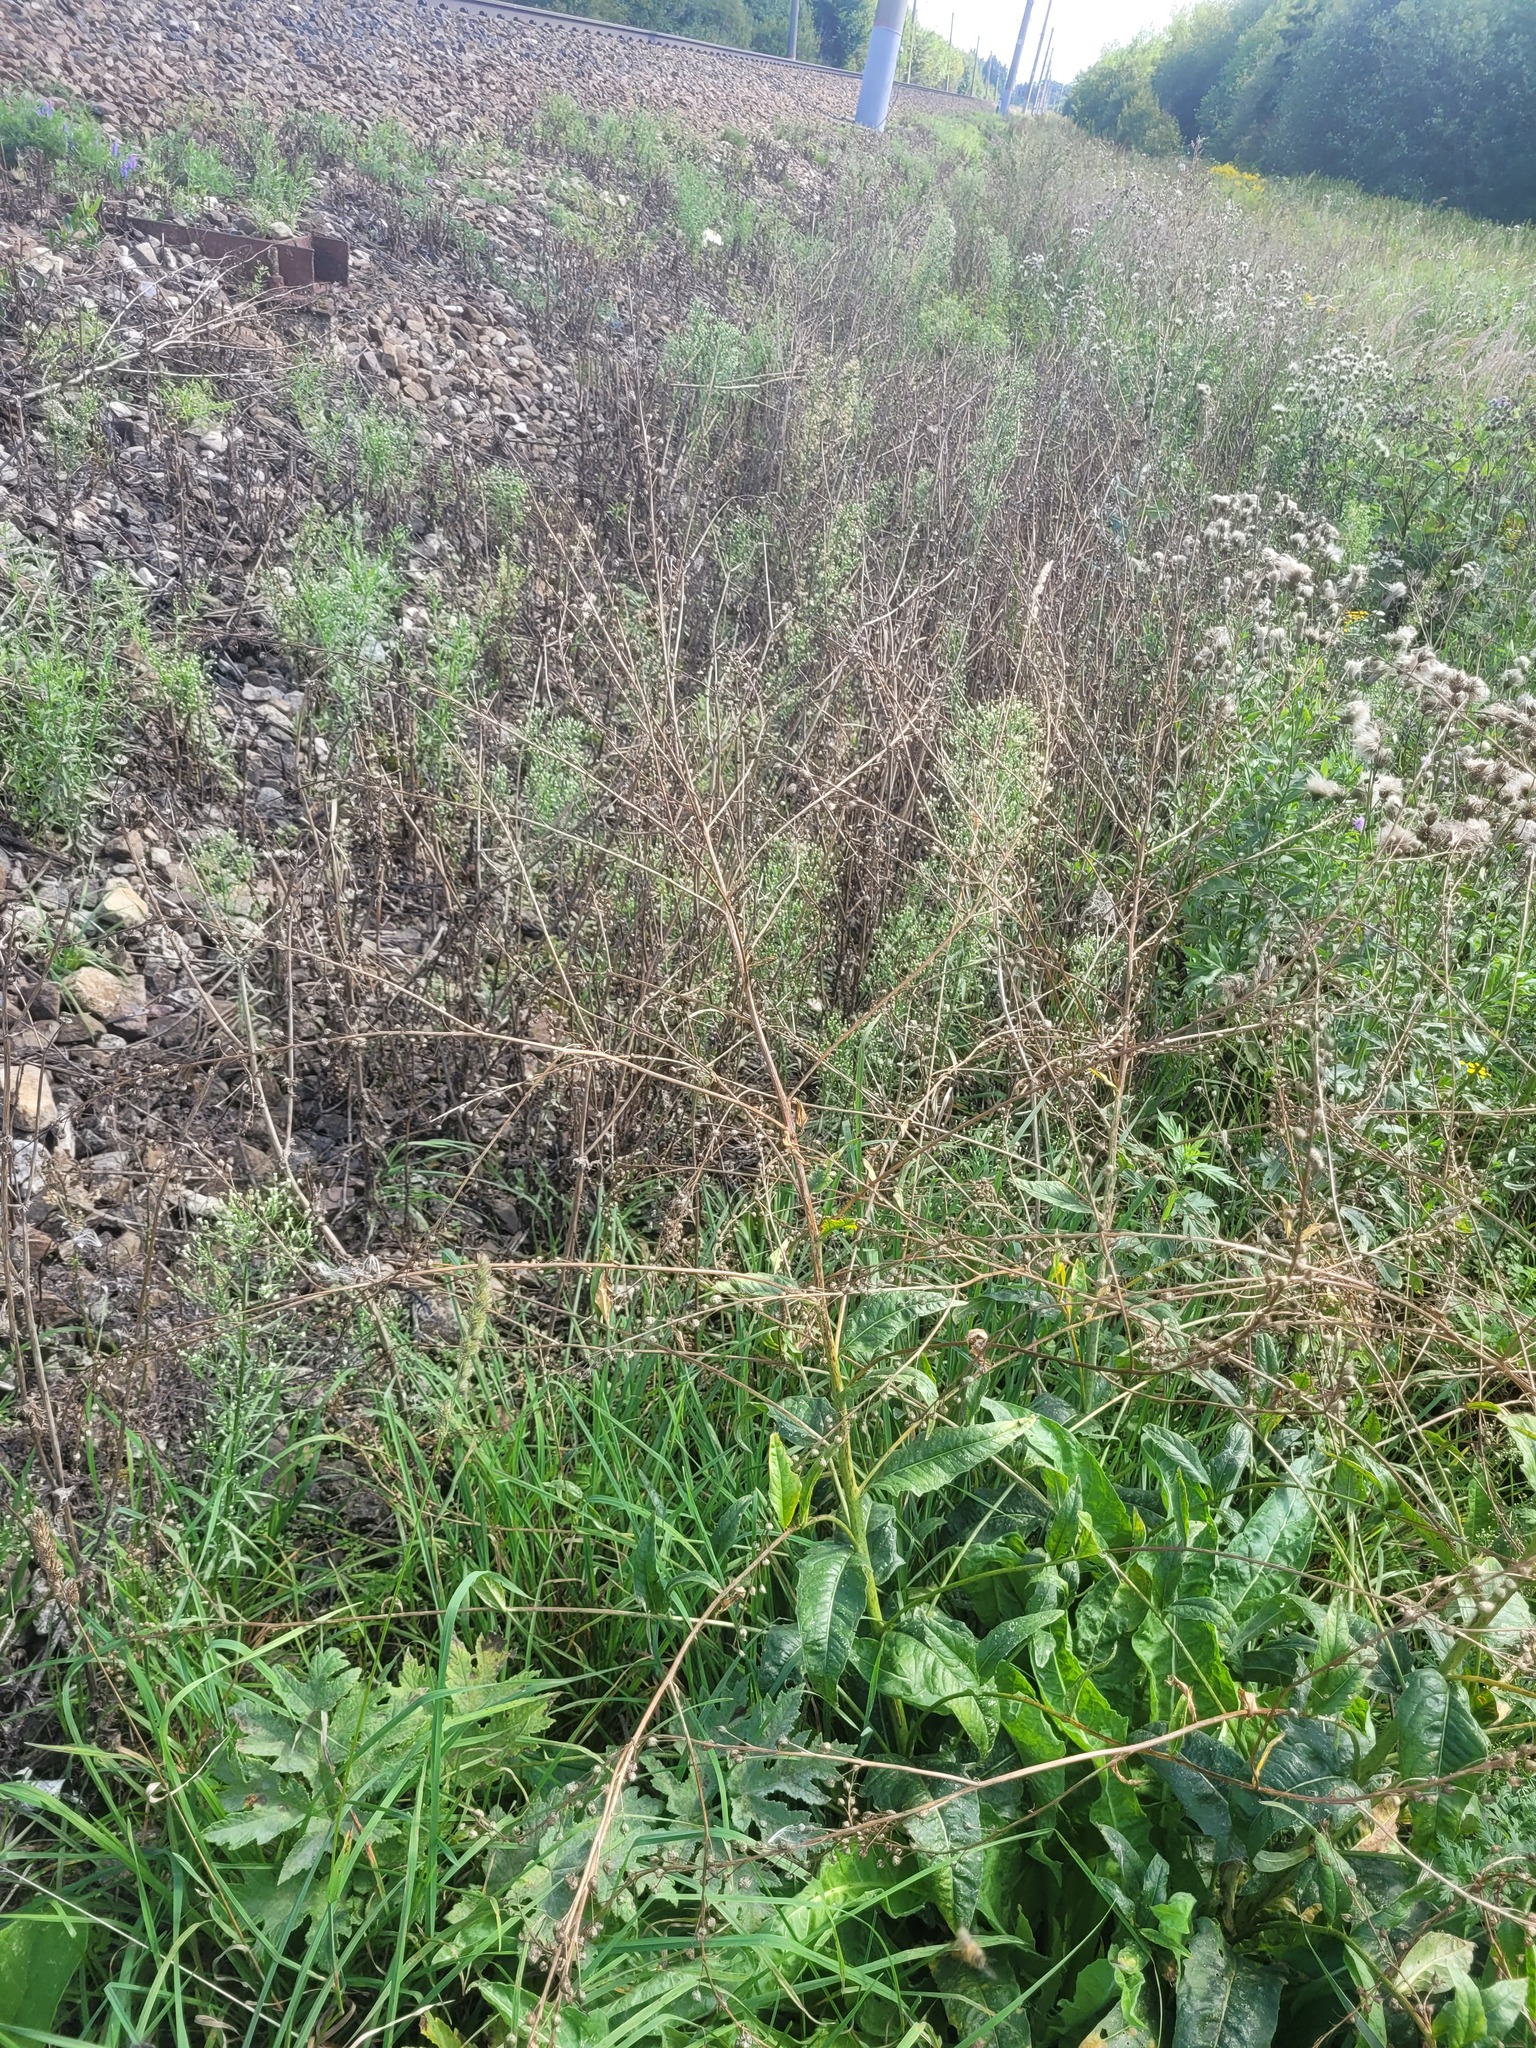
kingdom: Plantae
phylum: Tracheophyta
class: Magnoliopsida
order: Brassicales
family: Brassicaceae
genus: Bunias
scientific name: Bunias orientalis
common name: Warty-cabbage
